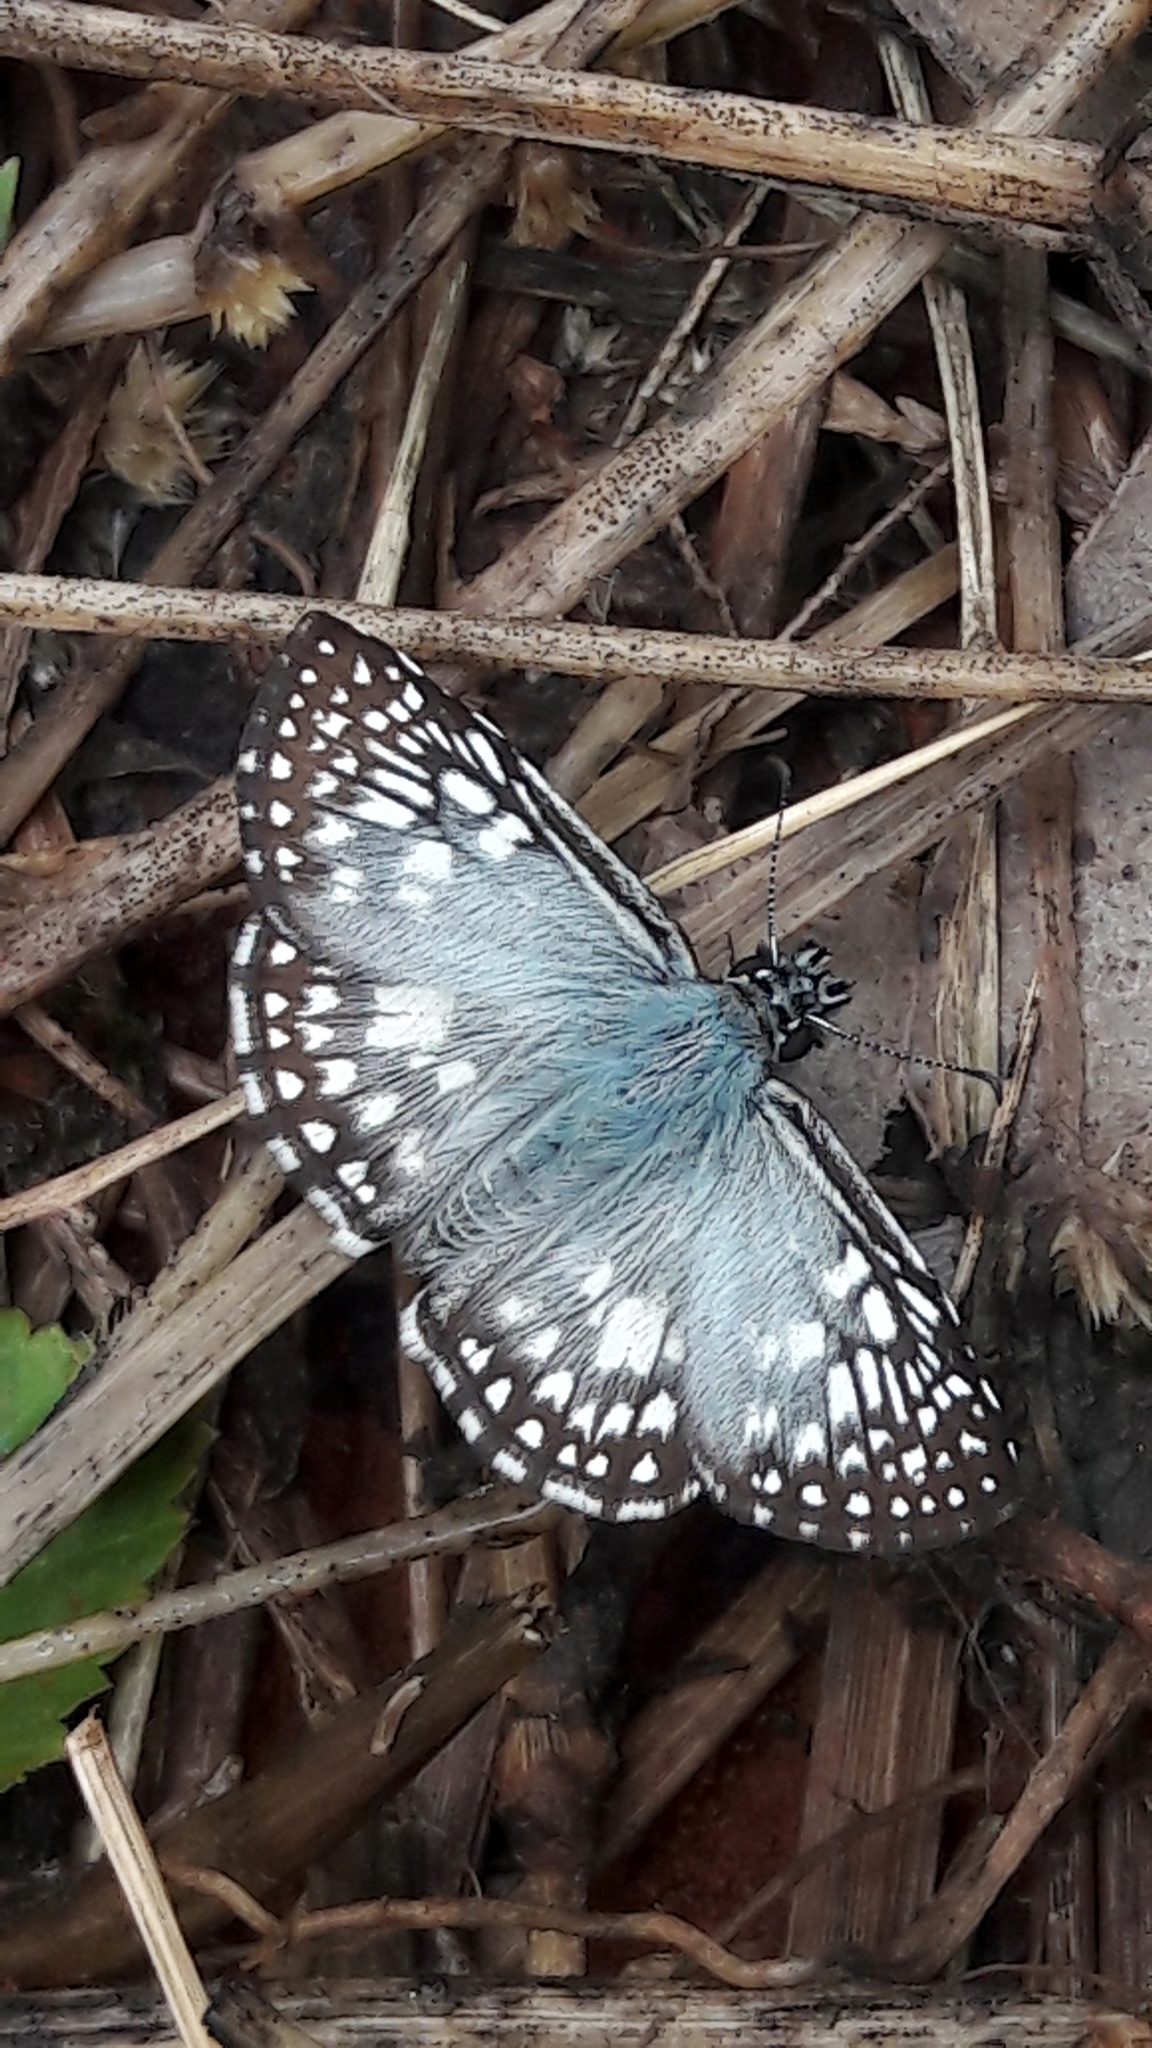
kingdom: Animalia
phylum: Arthropoda
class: Insecta
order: Lepidoptera
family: Hesperiidae
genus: Pyrgus
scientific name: Pyrgus oileus
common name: Tropical checkered-skipper
